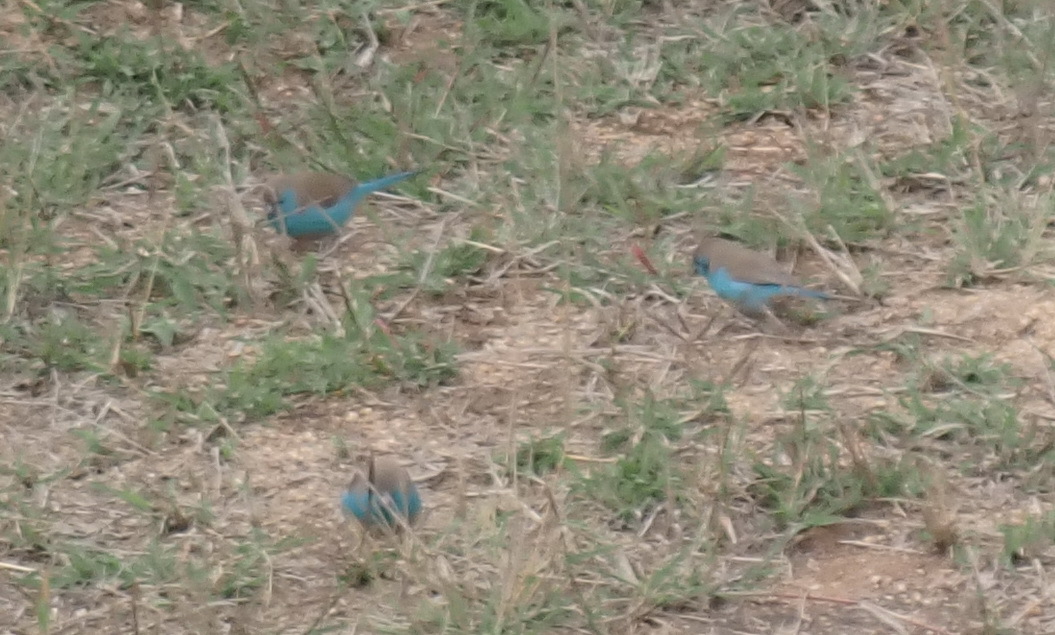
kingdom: Animalia
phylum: Chordata
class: Aves
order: Passeriformes
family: Estrildidae
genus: Uraeginthus
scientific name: Uraeginthus angolensis
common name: Blue waxbill
